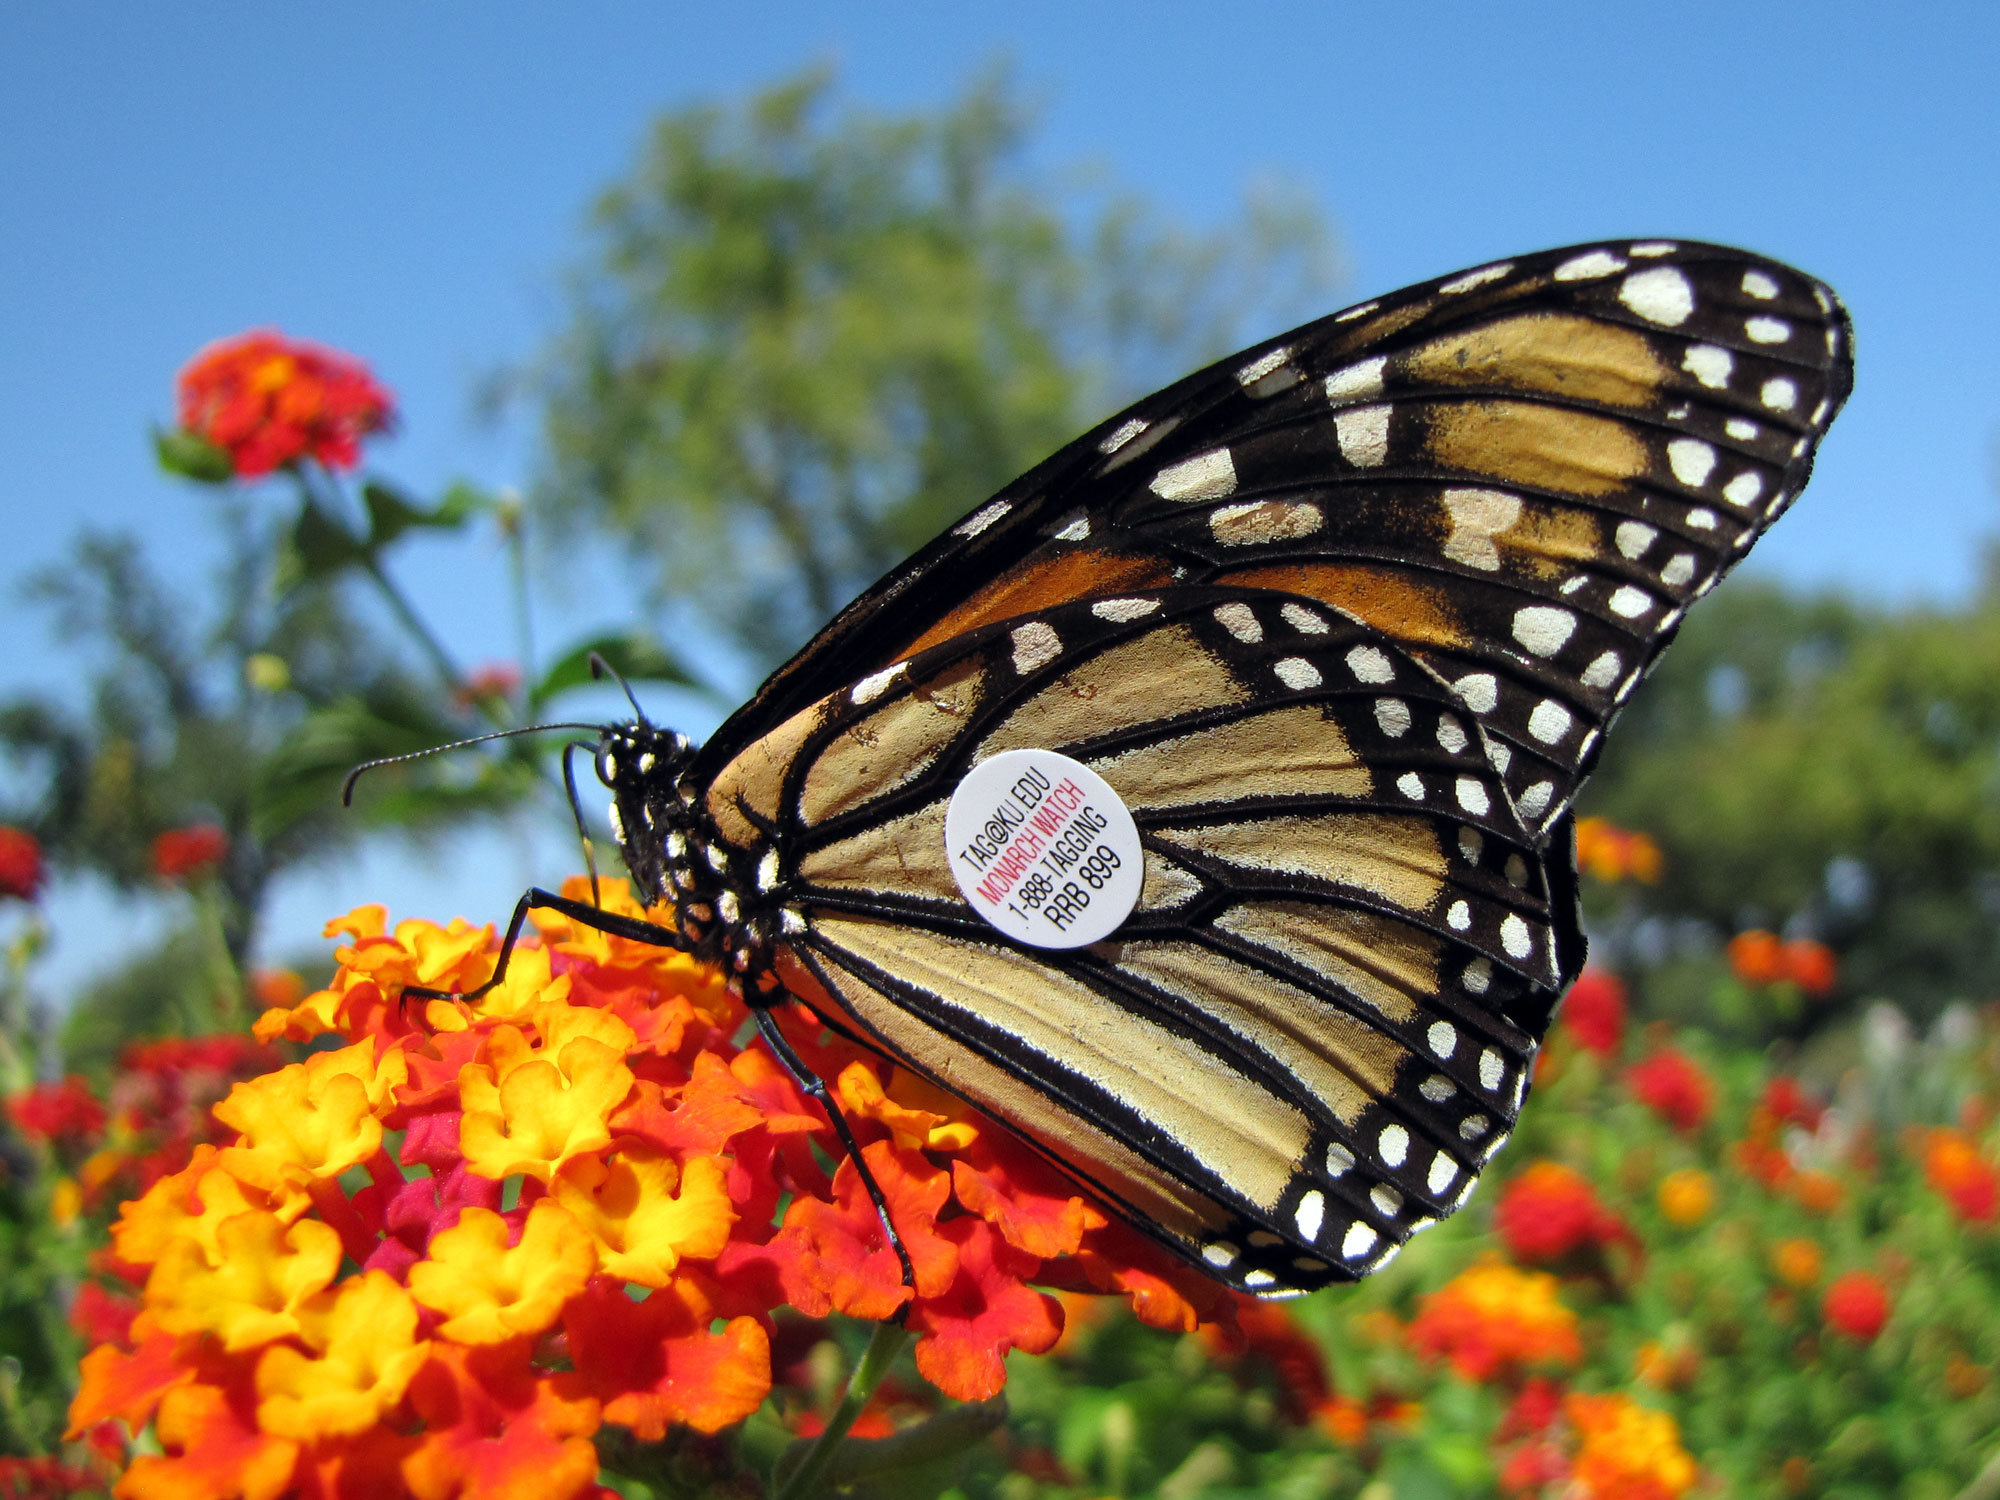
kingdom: Animalia
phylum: Arthropoda
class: Insecta
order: Lepidoptera
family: Nymphalidae
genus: Danaus
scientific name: Danaus plexippus
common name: Monarch
